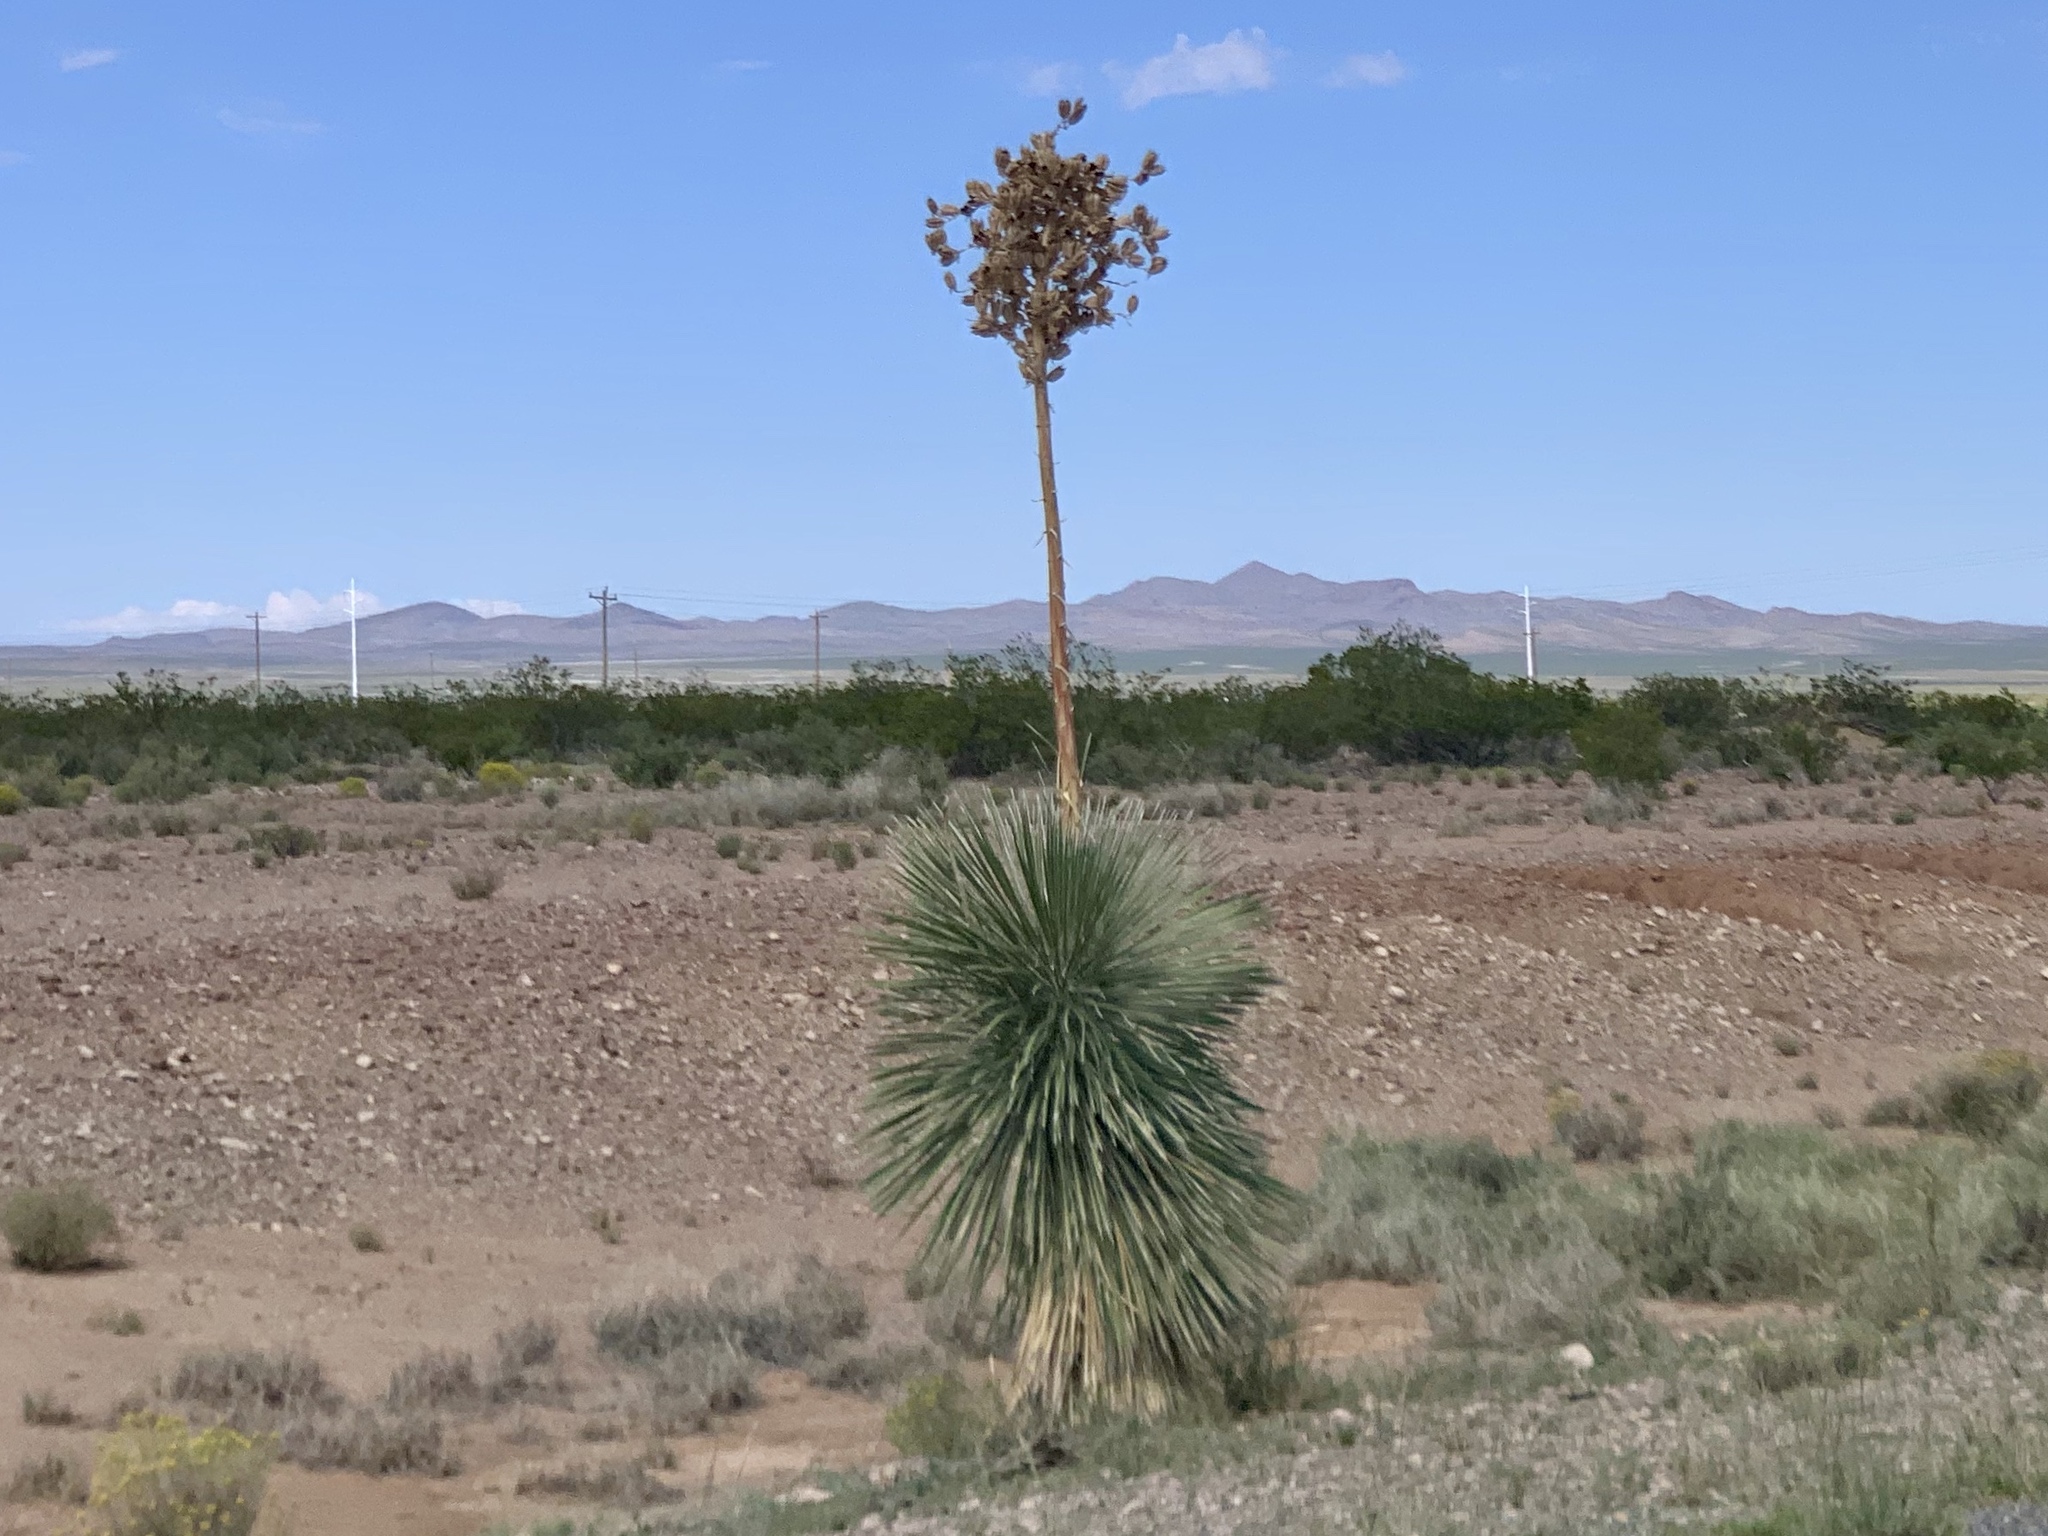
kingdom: Plantae
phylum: Tracheophyta
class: Liliopsida
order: Asparagales
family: Asparagaceae
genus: Yucca
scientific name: Yucca elata
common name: Palmella
